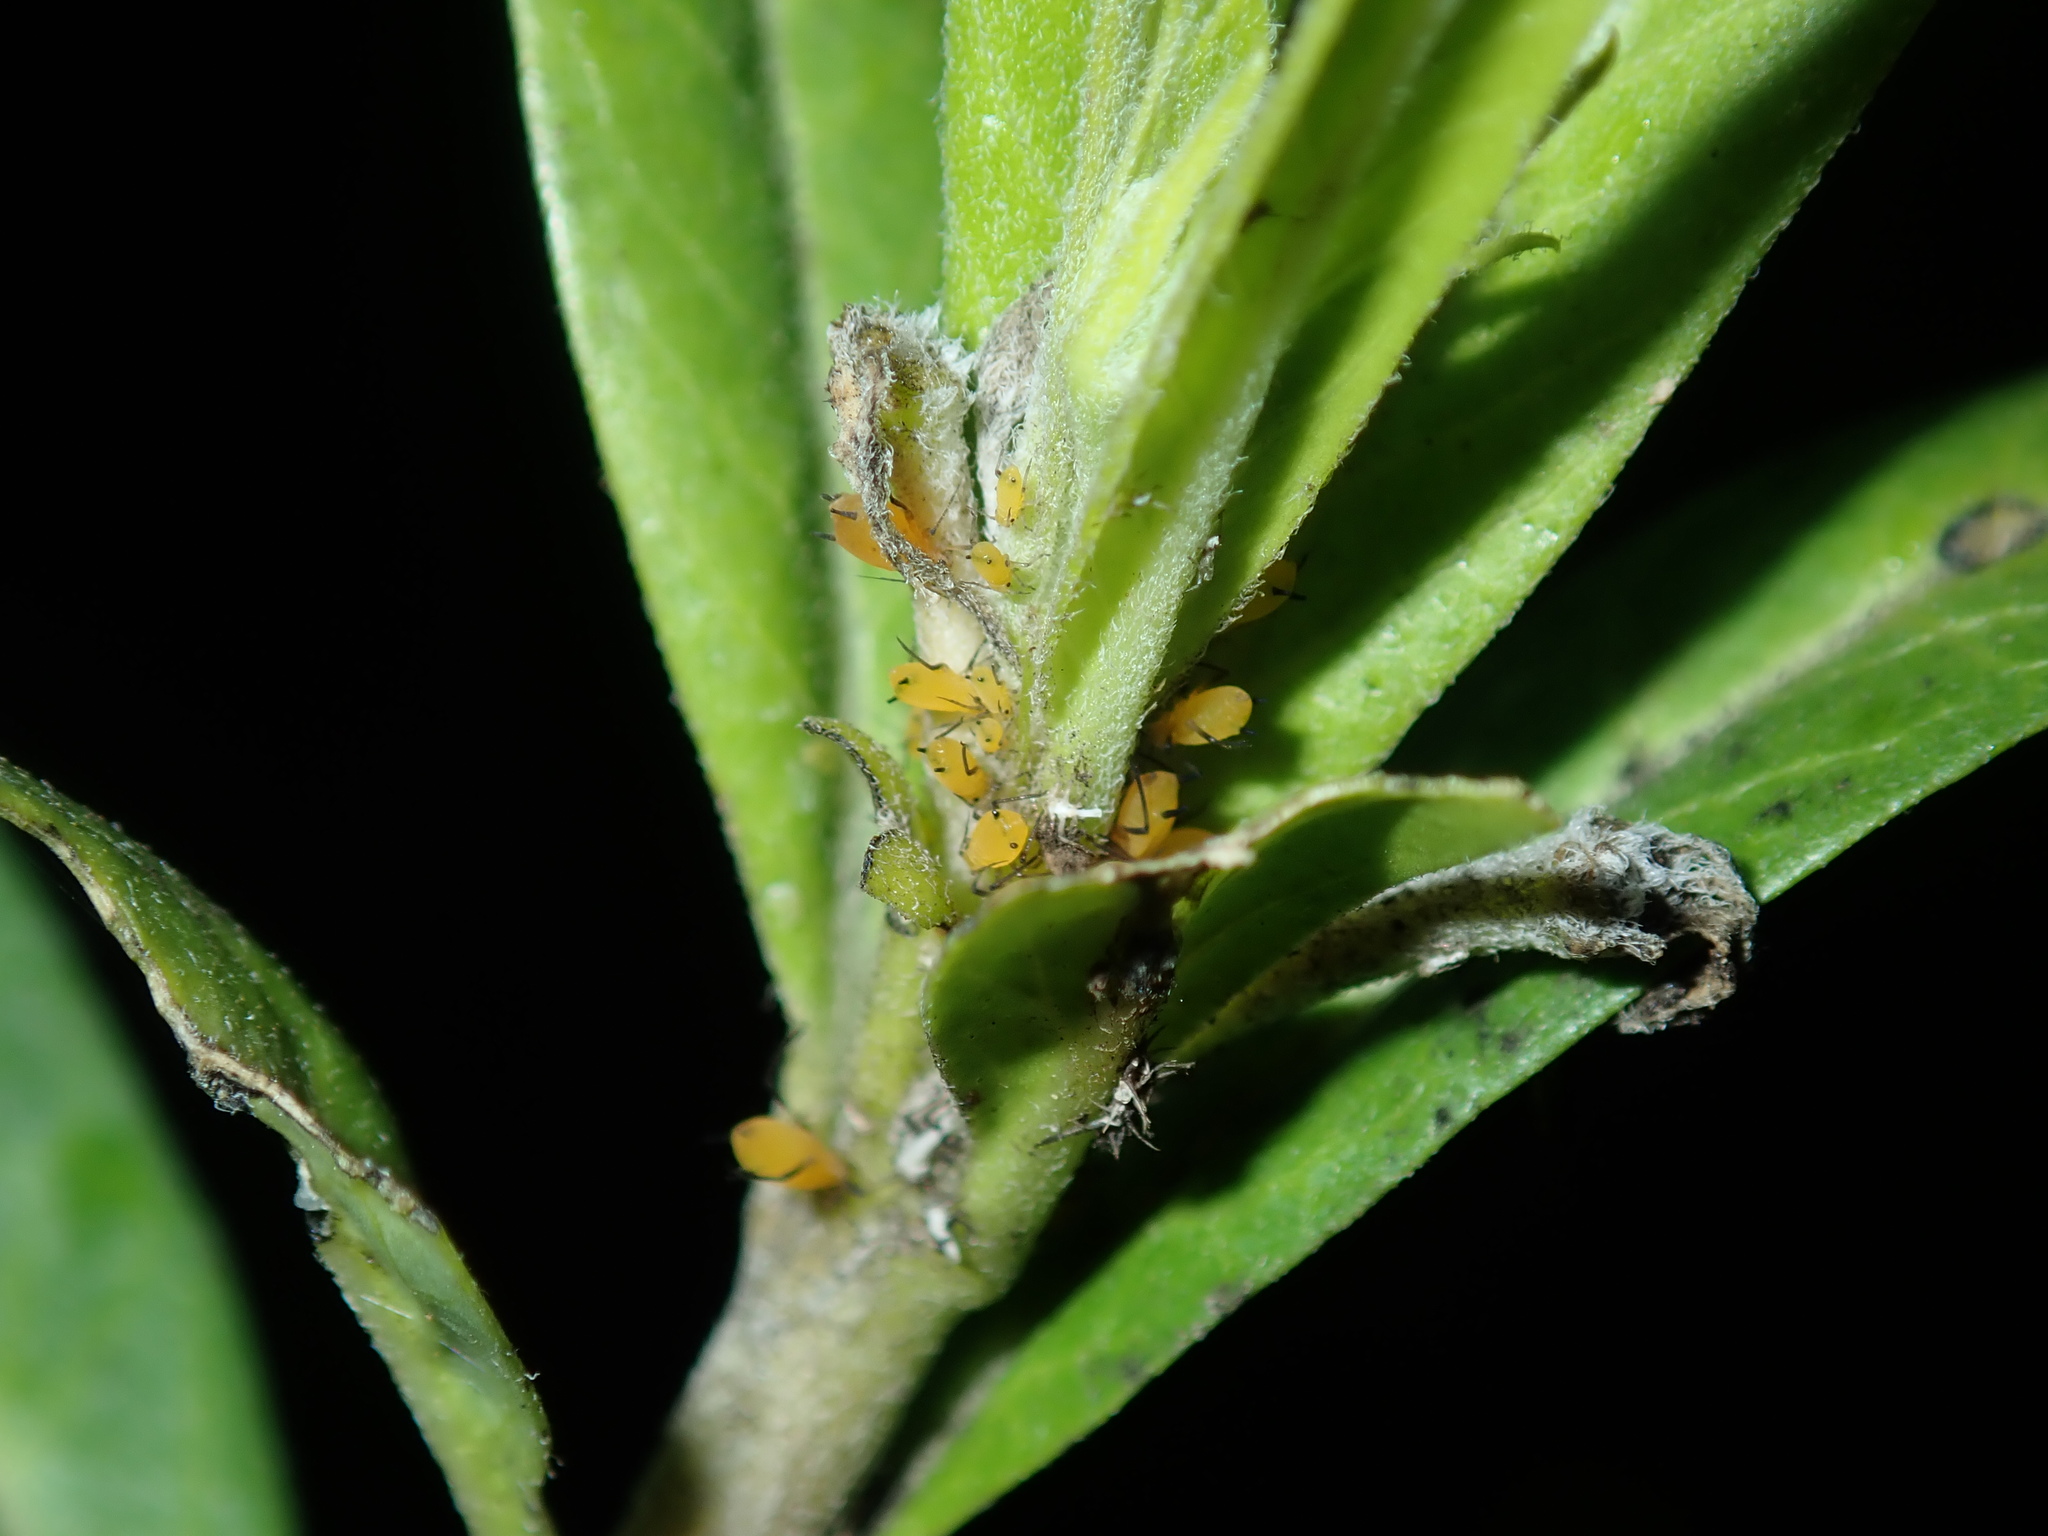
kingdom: Animalia
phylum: Arthropoda
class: Insecta
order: Hemiptera
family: Aphididae
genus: Aphis
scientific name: Aphis nerii
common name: Oleander aphid
